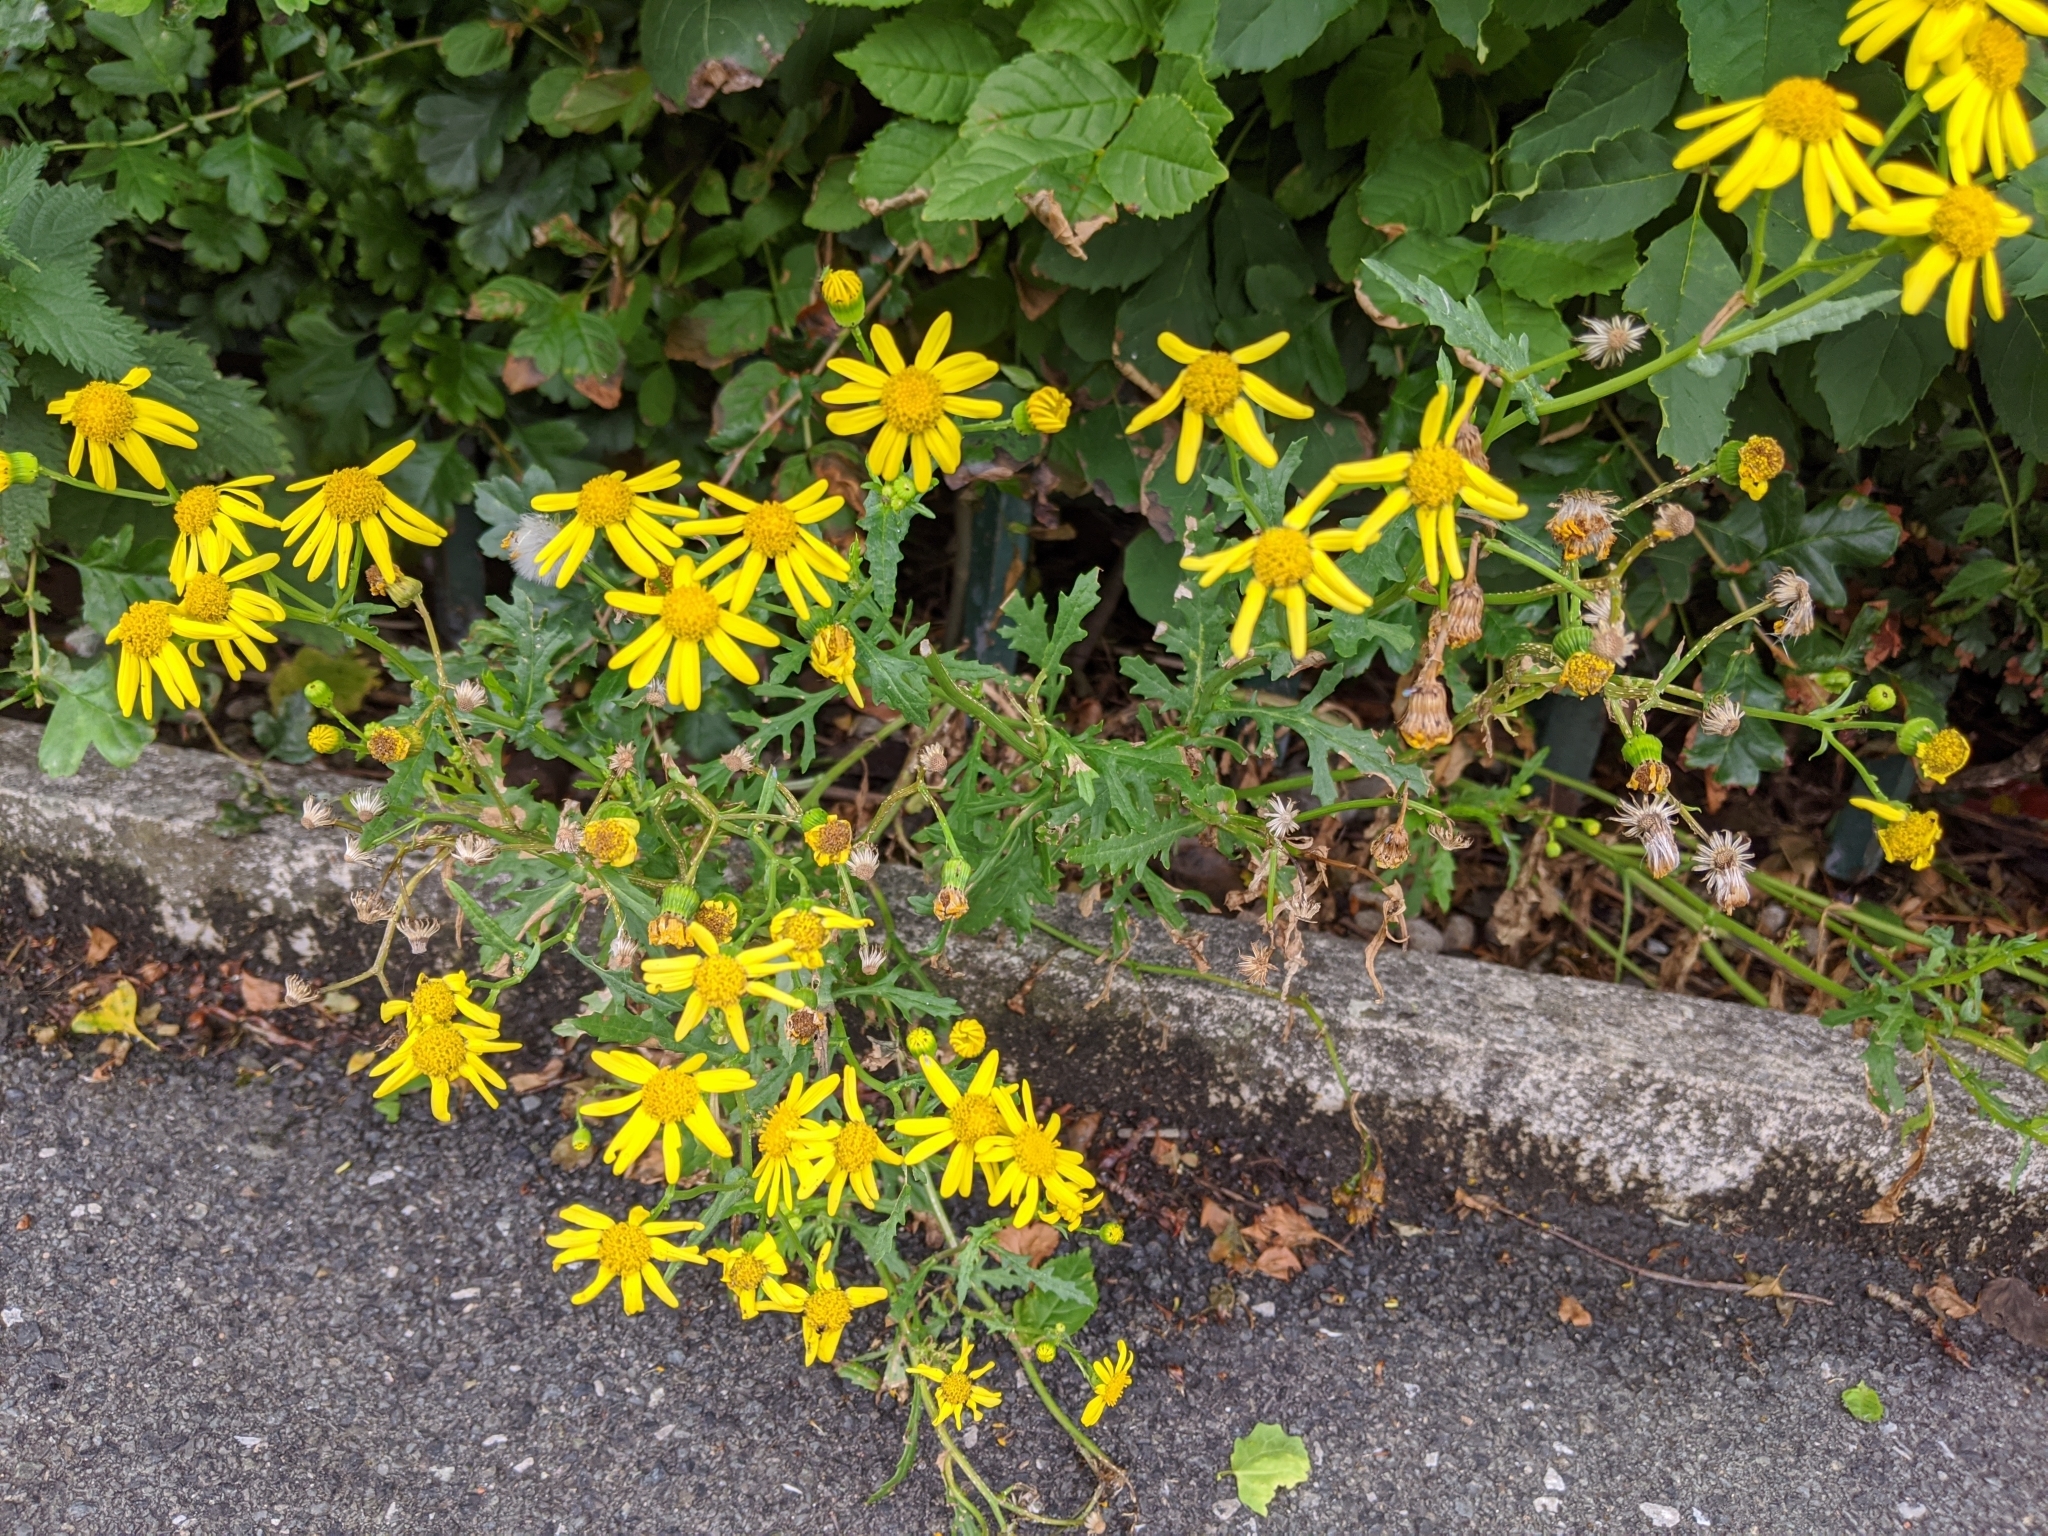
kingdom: Plantae
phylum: Tracheophyta
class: Magnoliopsida
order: Asterales
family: Asteraceae
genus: Senecio
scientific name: Senecio squalidus
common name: Oxford ragwort
